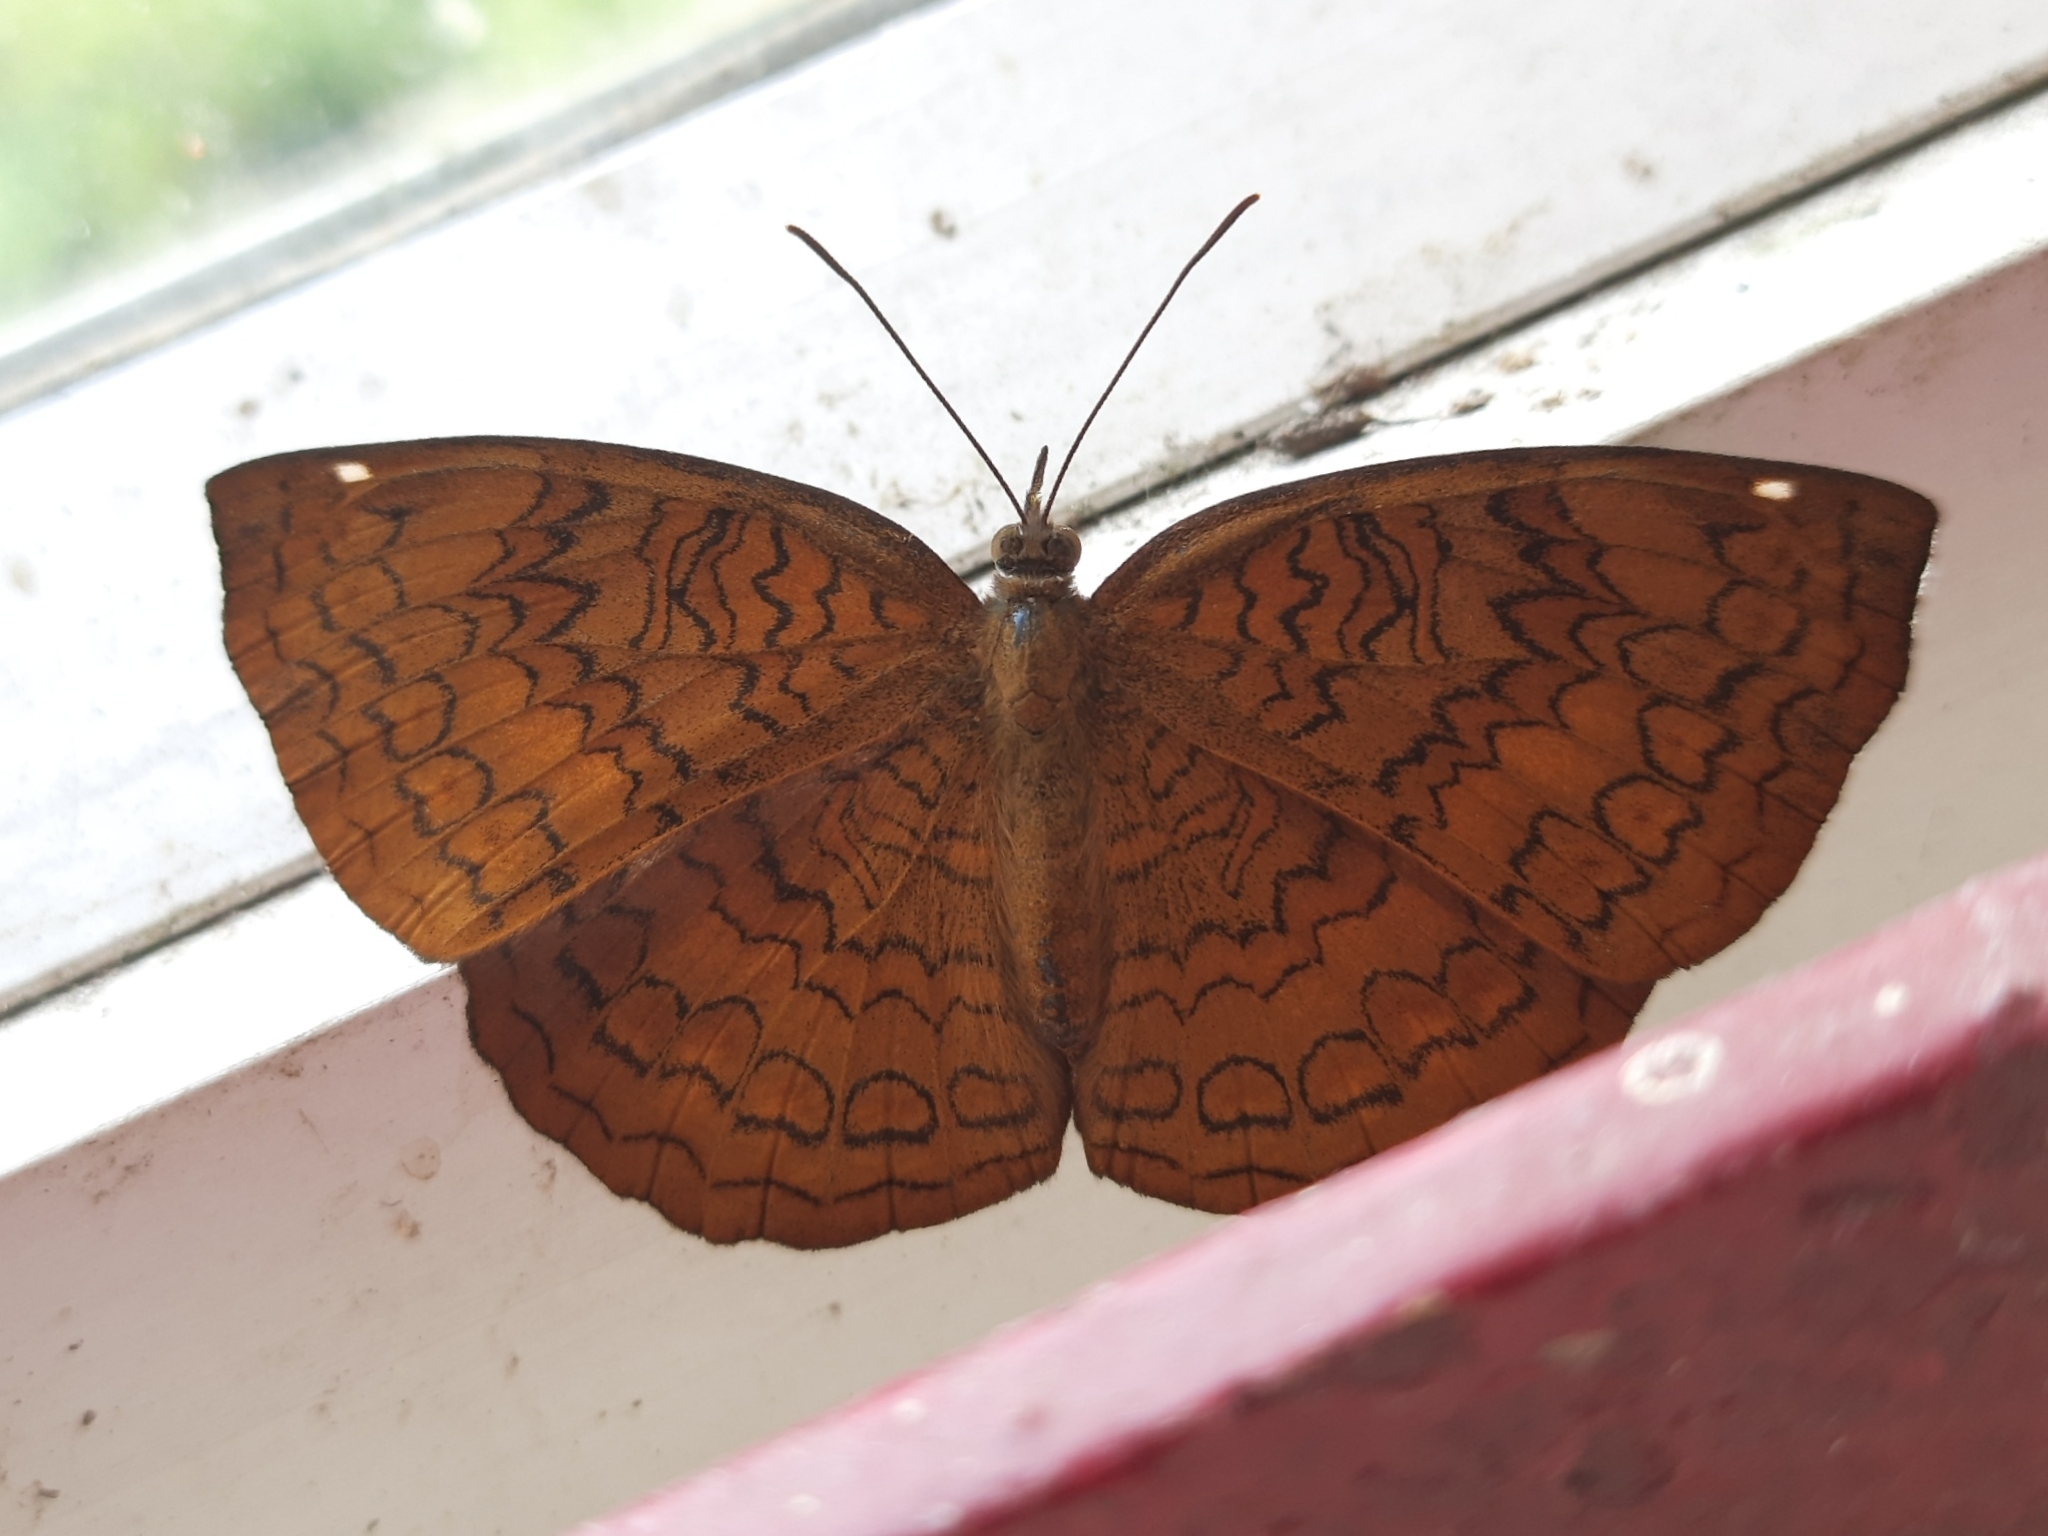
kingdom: Animalia
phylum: Arthropoda
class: Insecta
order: Lepidoptera
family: Nymphalidae
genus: Ariadne
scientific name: Ariadne merione
